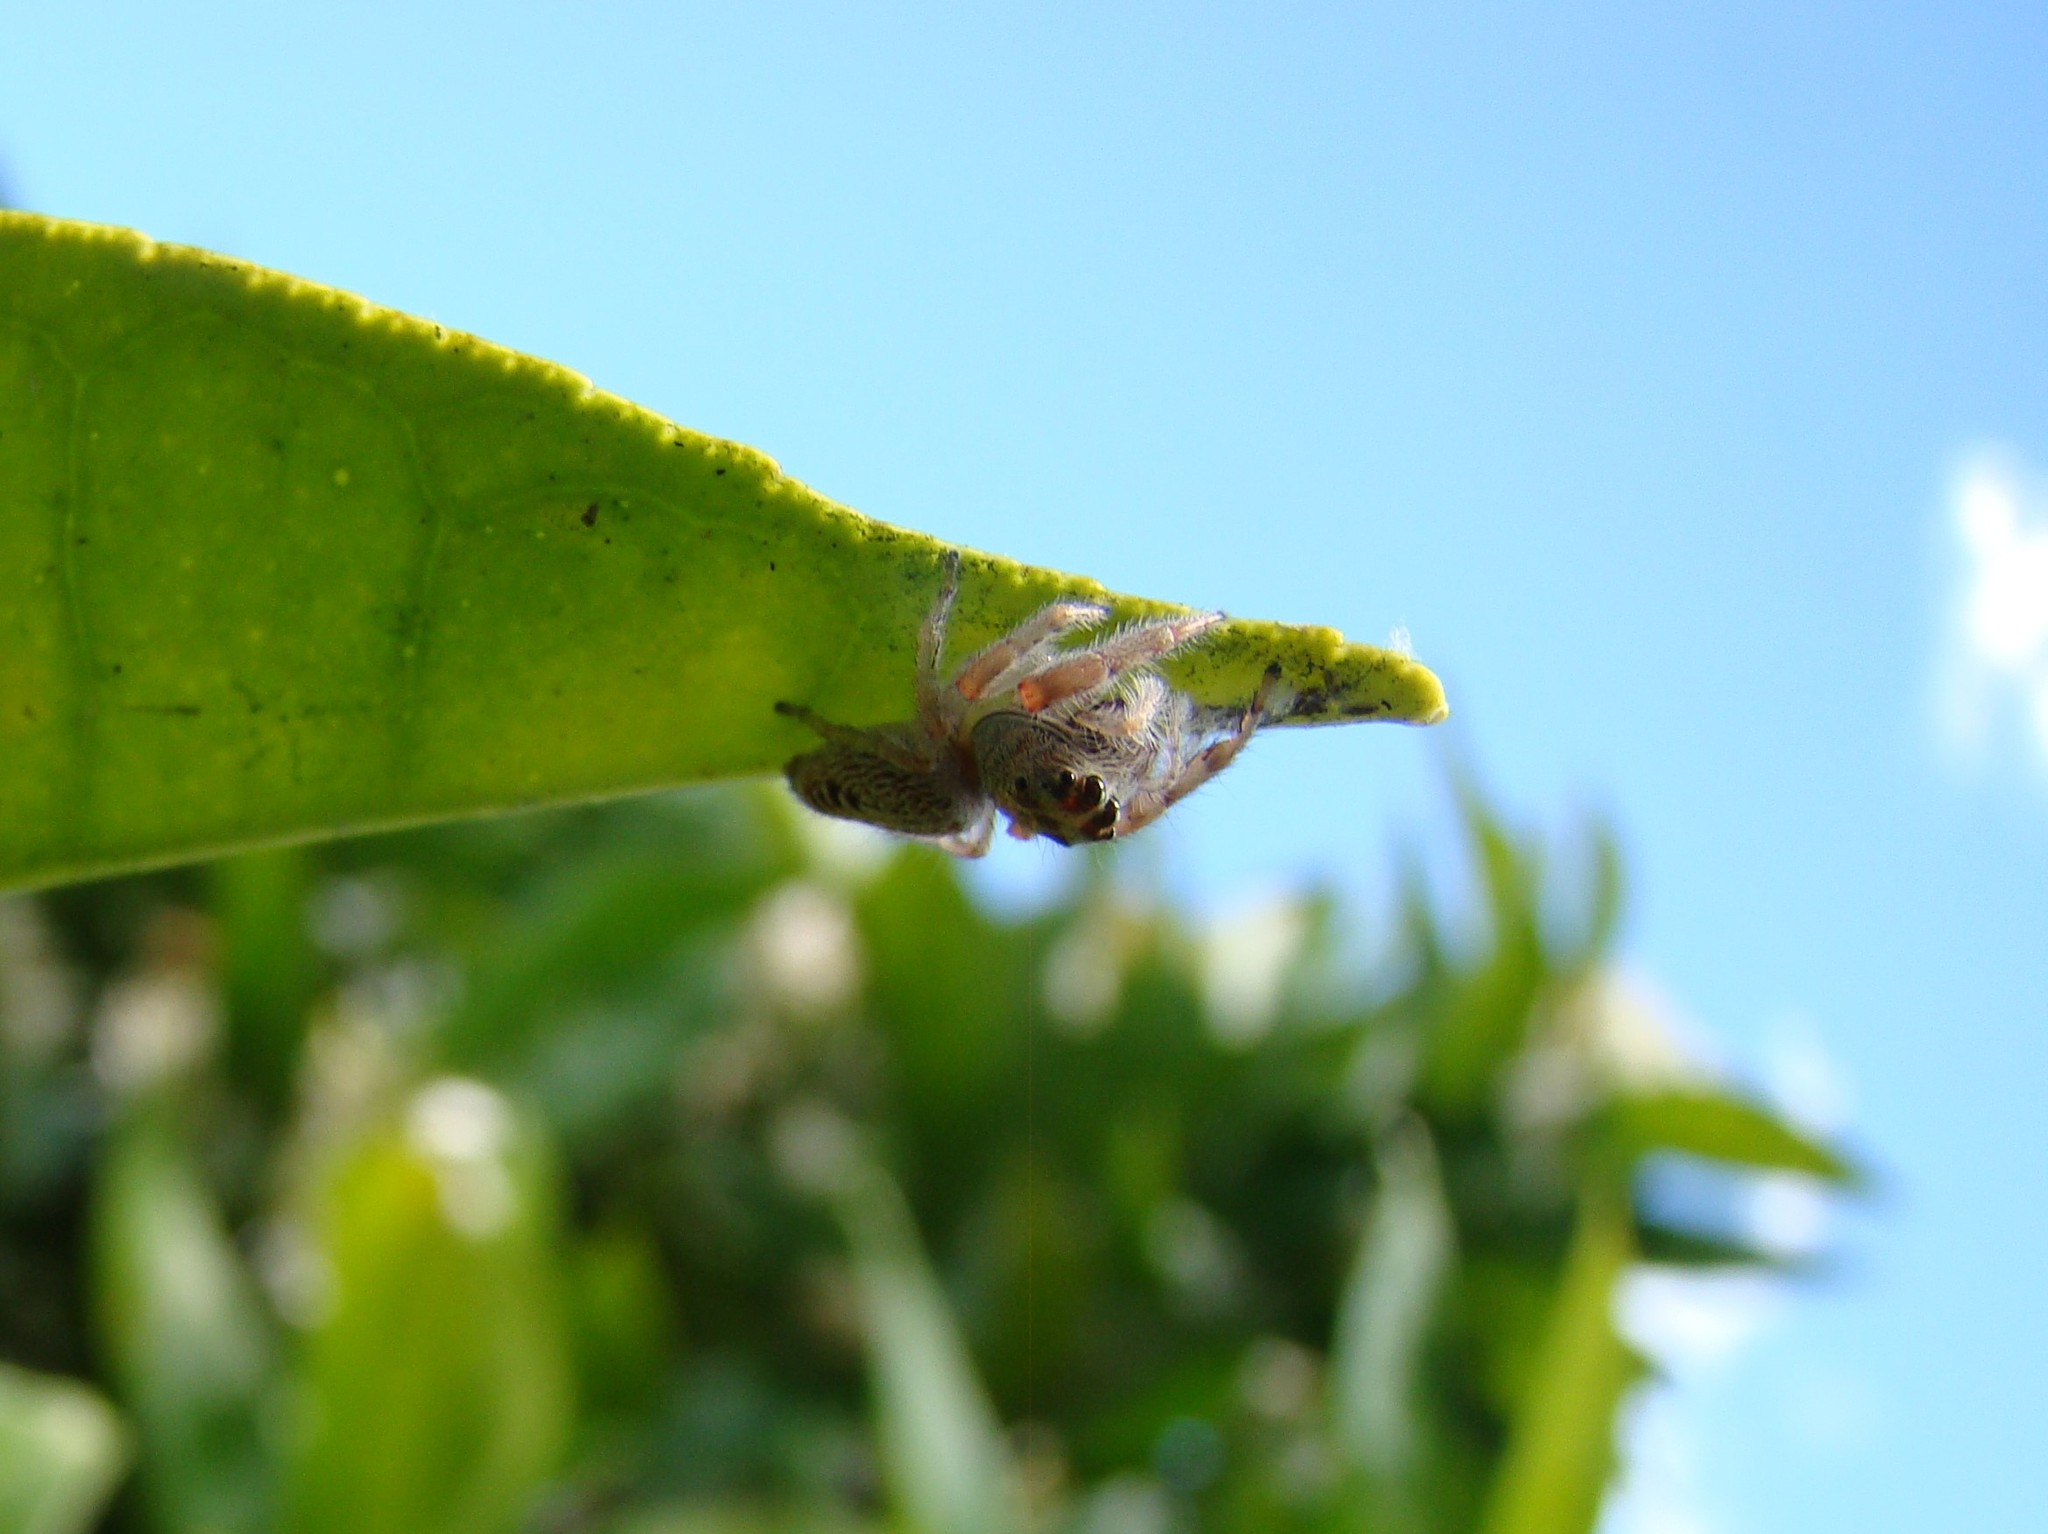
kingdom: Animalia
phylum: Arthropoda
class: Arachnida
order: Araneae
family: Salticidae
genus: Opisthoncus
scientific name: Opisthoncus polyphemus
